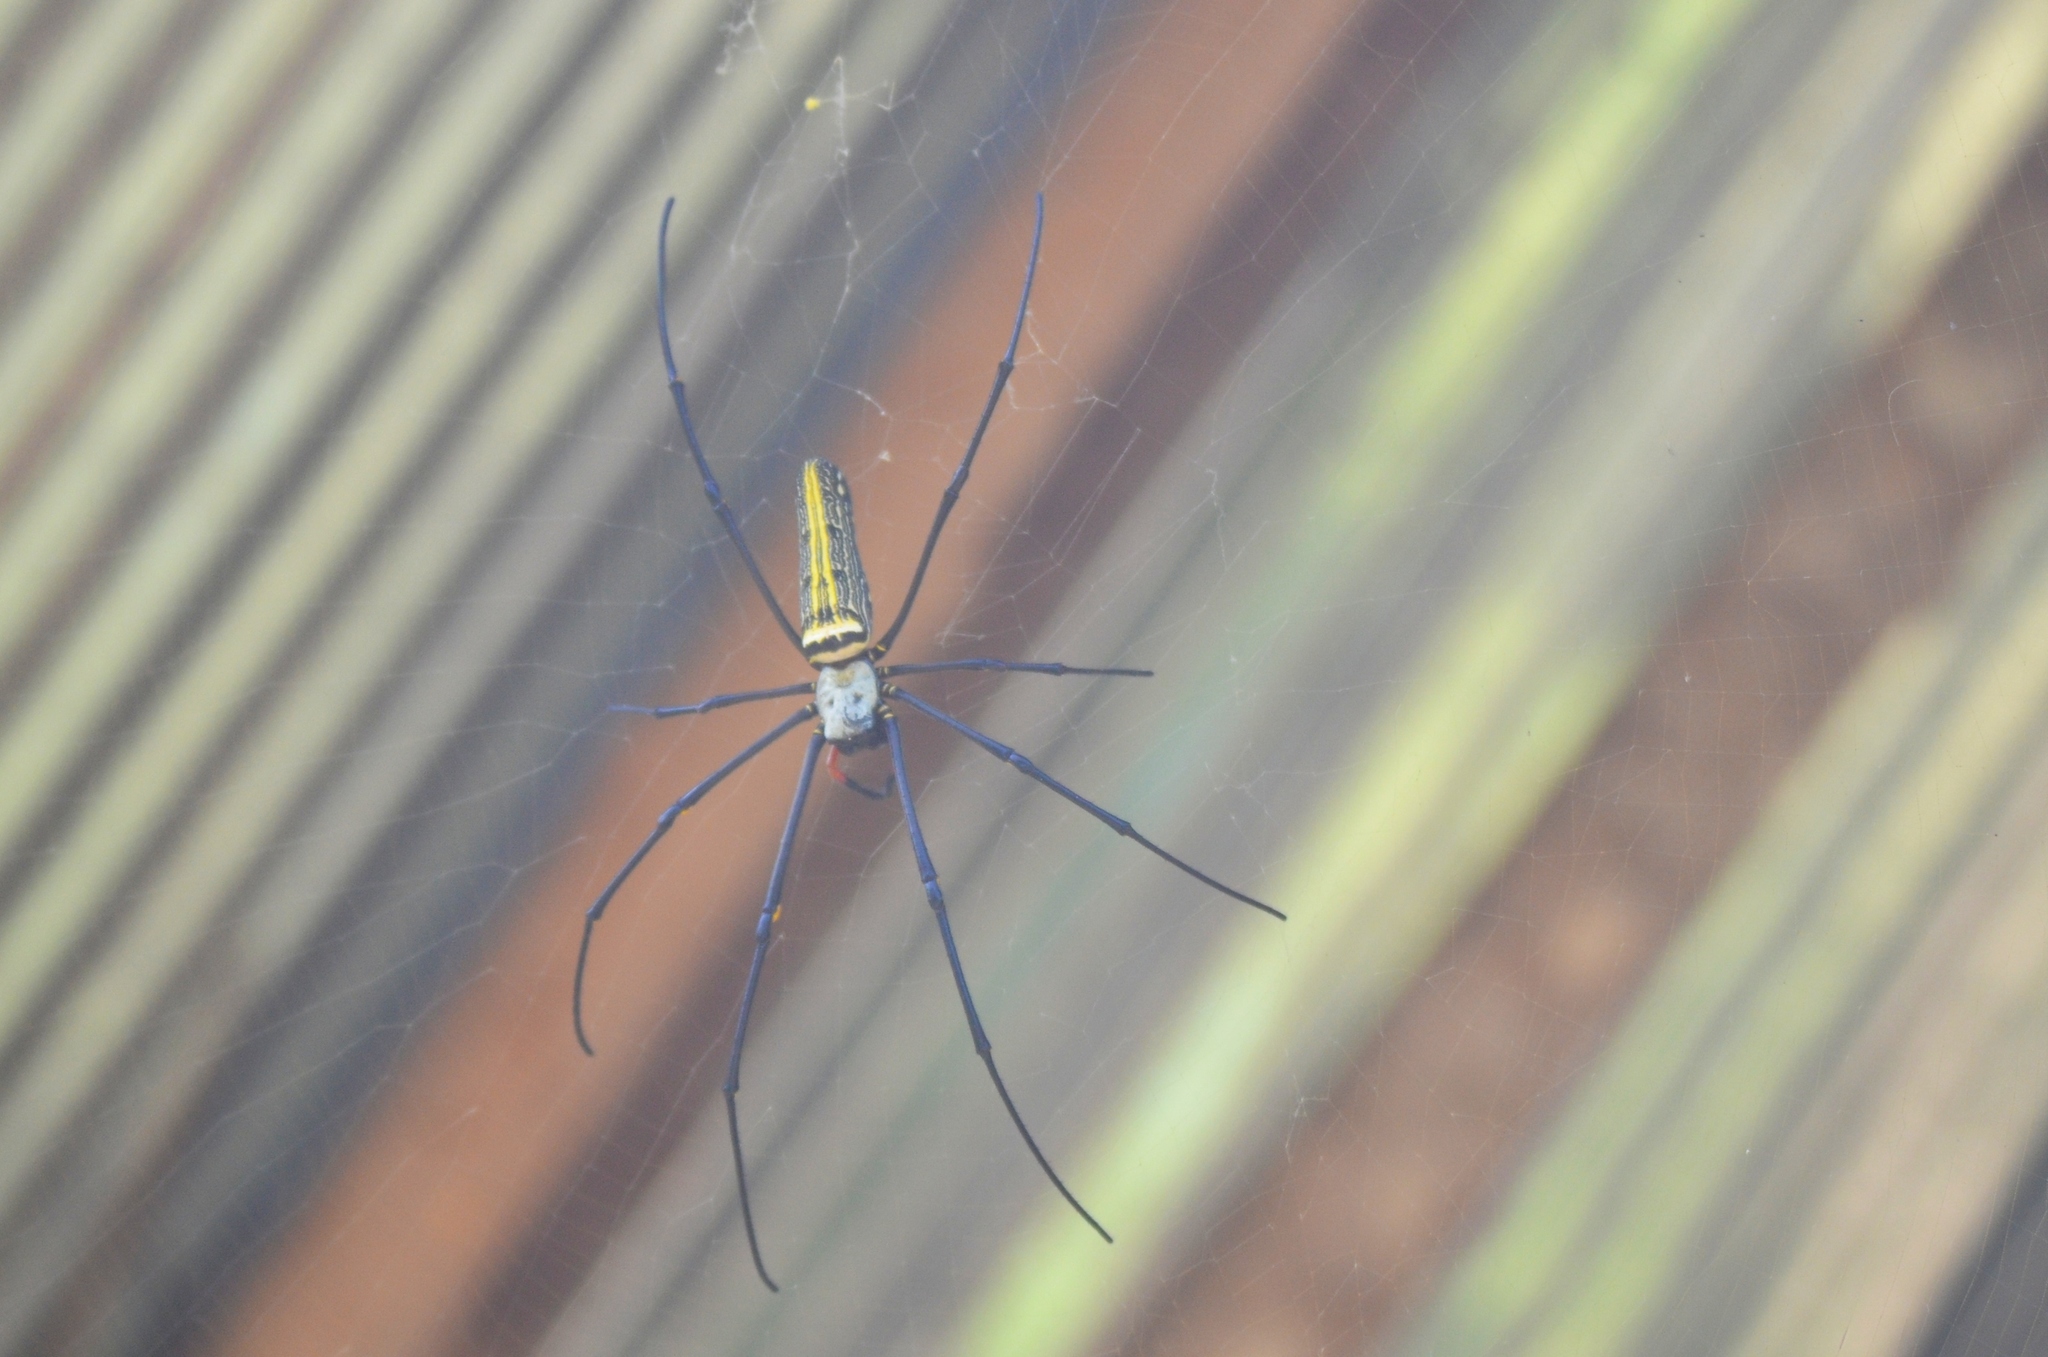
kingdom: Animalia
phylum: Arthropoda
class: Arachnida
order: Araneae
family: Araneidae
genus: Nephila
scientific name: Nephila pilipes
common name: Giant golden orb weaver
